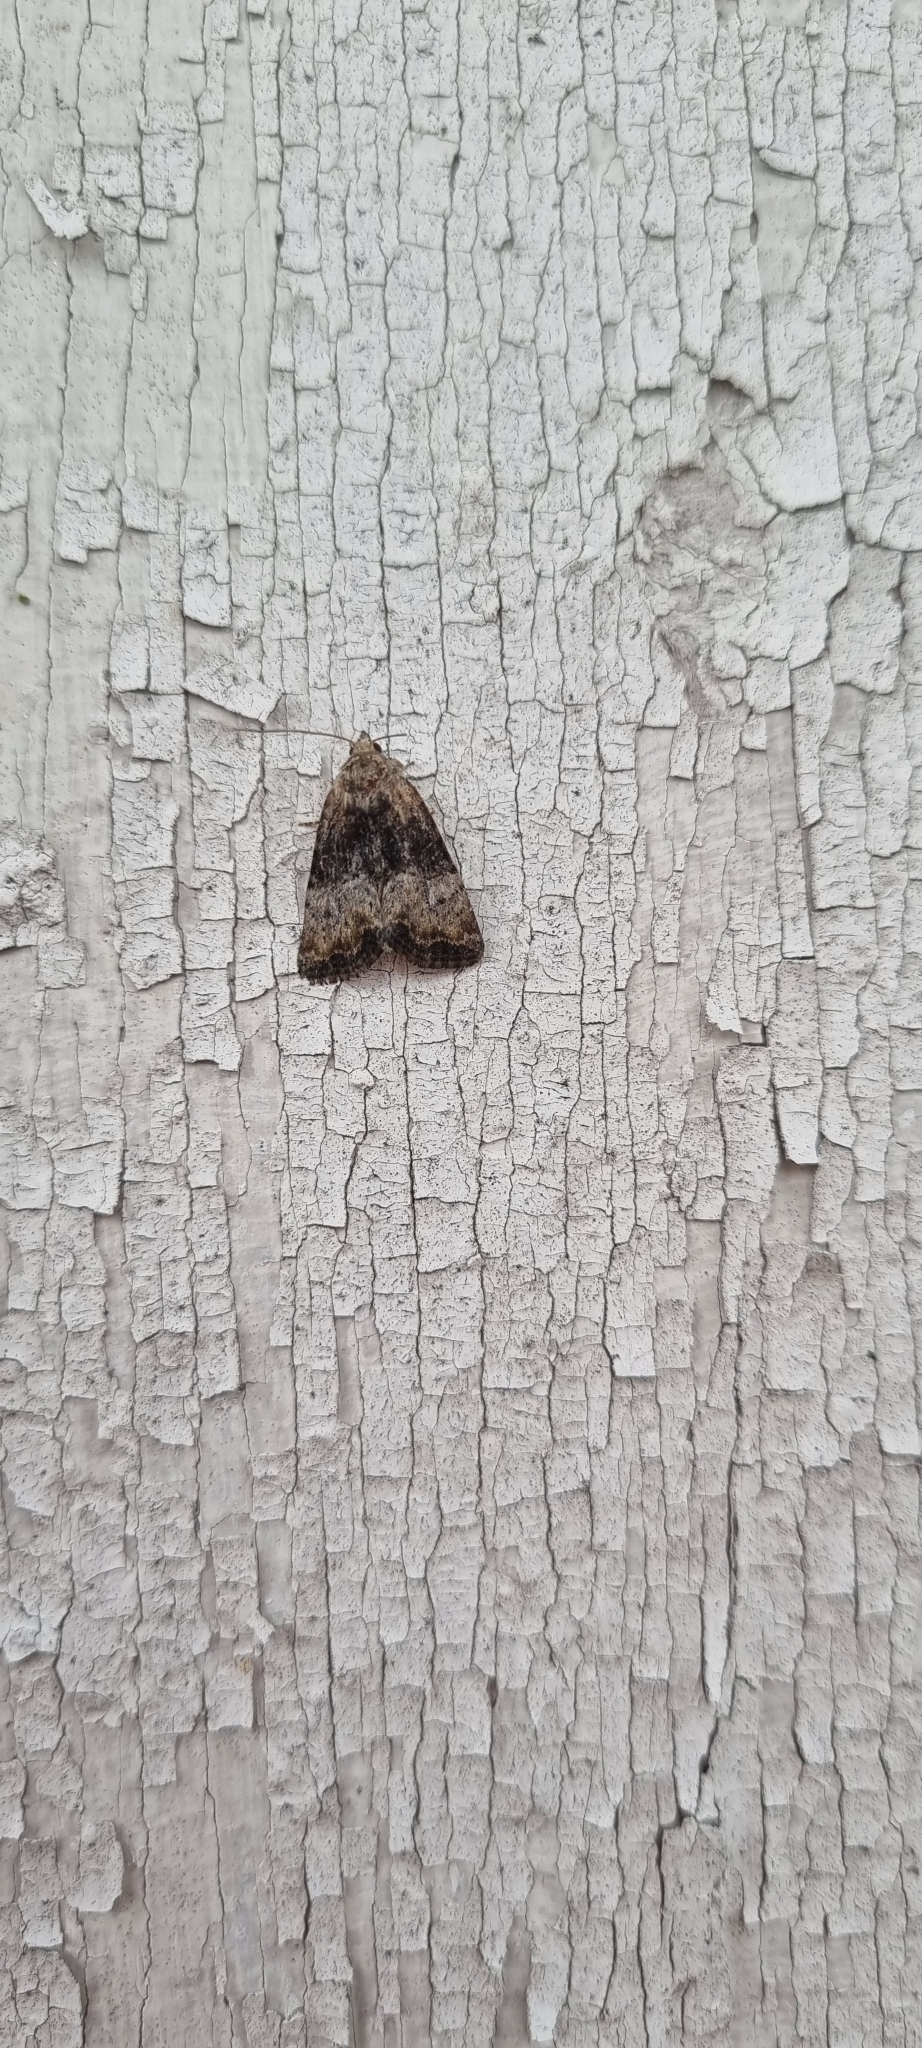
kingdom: Animalia
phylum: Arthropoda
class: Insecta
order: Lepidoptera
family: Noctuidae
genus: Mesoligia
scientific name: Mesoligia furuncula
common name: Cloaked minor
